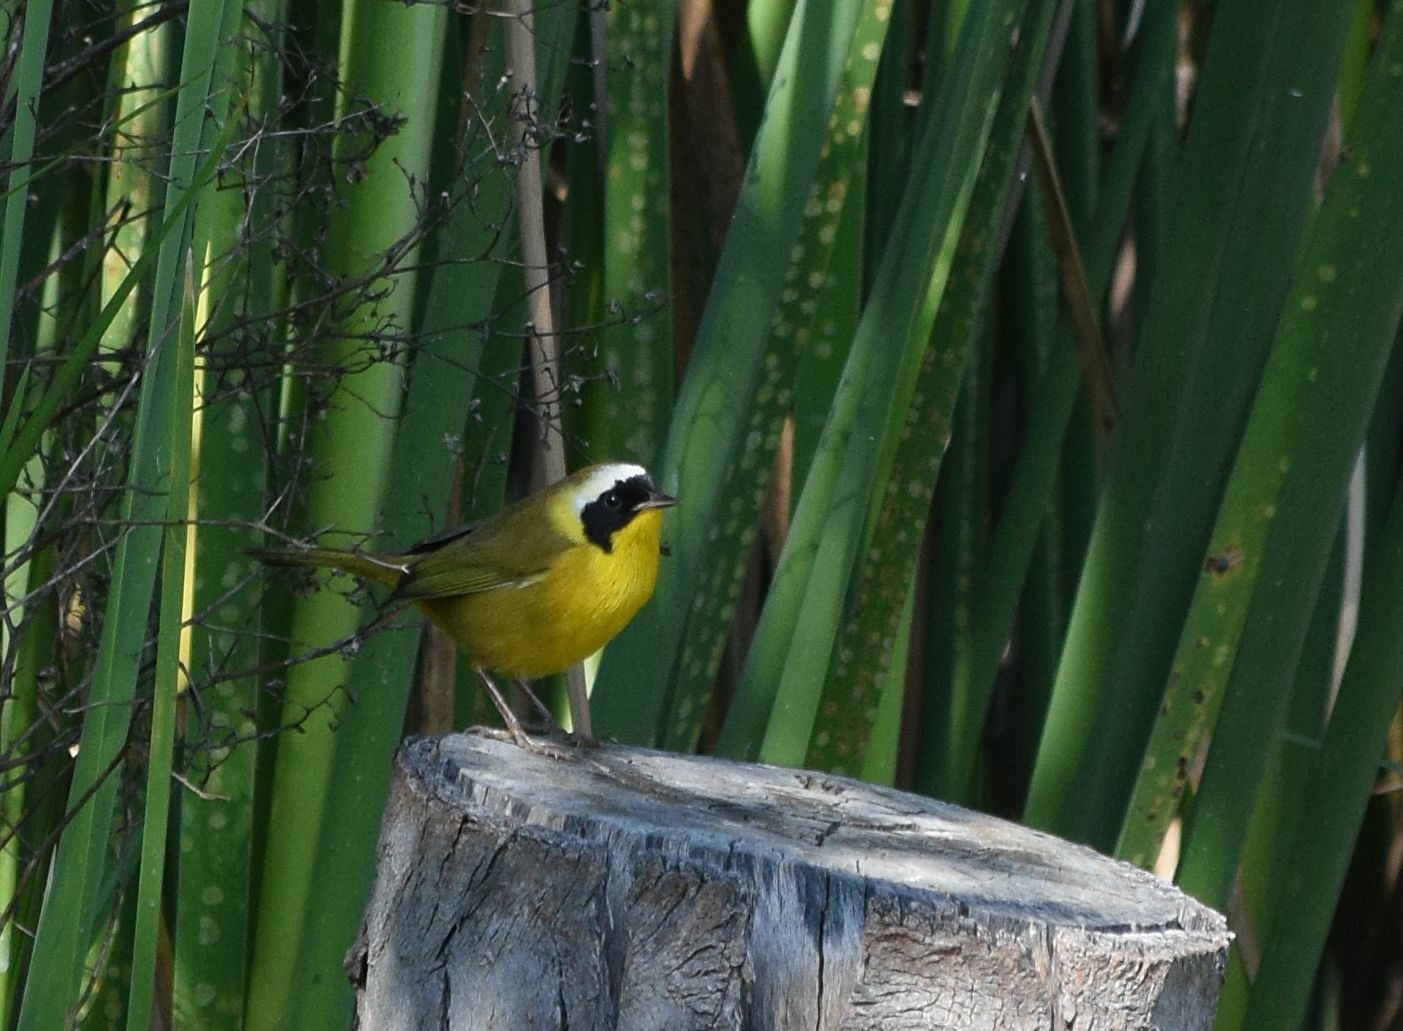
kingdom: Animalia
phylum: Chordata
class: Aves
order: Passeriformes
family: Parulidae
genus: Geothlypis
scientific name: Geothlypis trichas
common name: Common yellowthroat
